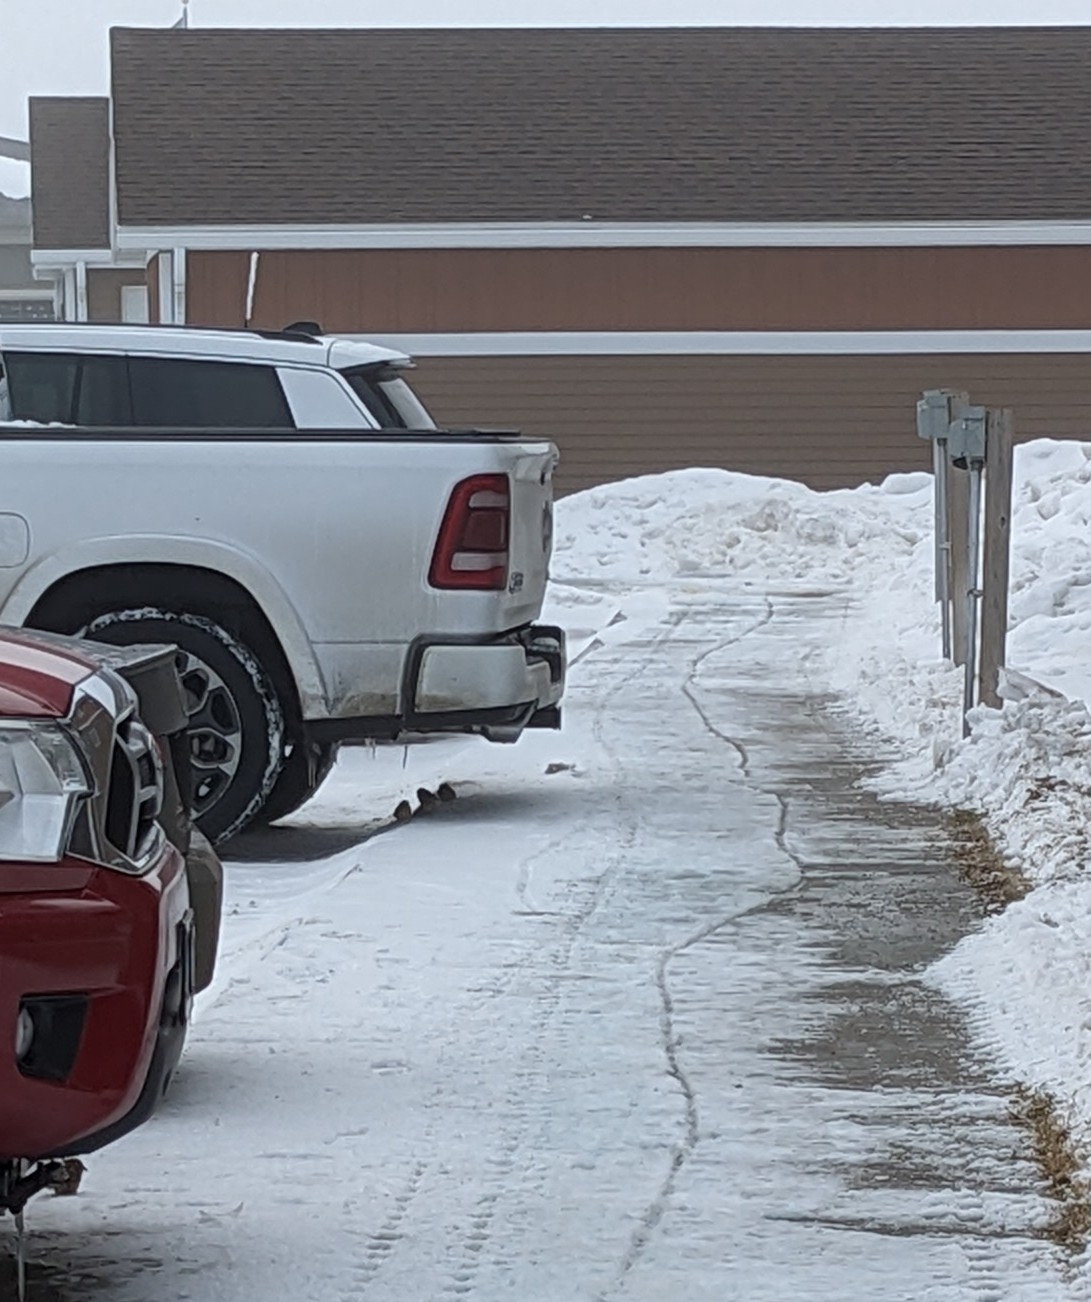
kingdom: Animalia
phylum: Chordata
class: Aves
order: Passeriformes
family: Passeridae
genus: Passer
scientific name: Passer domesticus
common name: House sparrow
